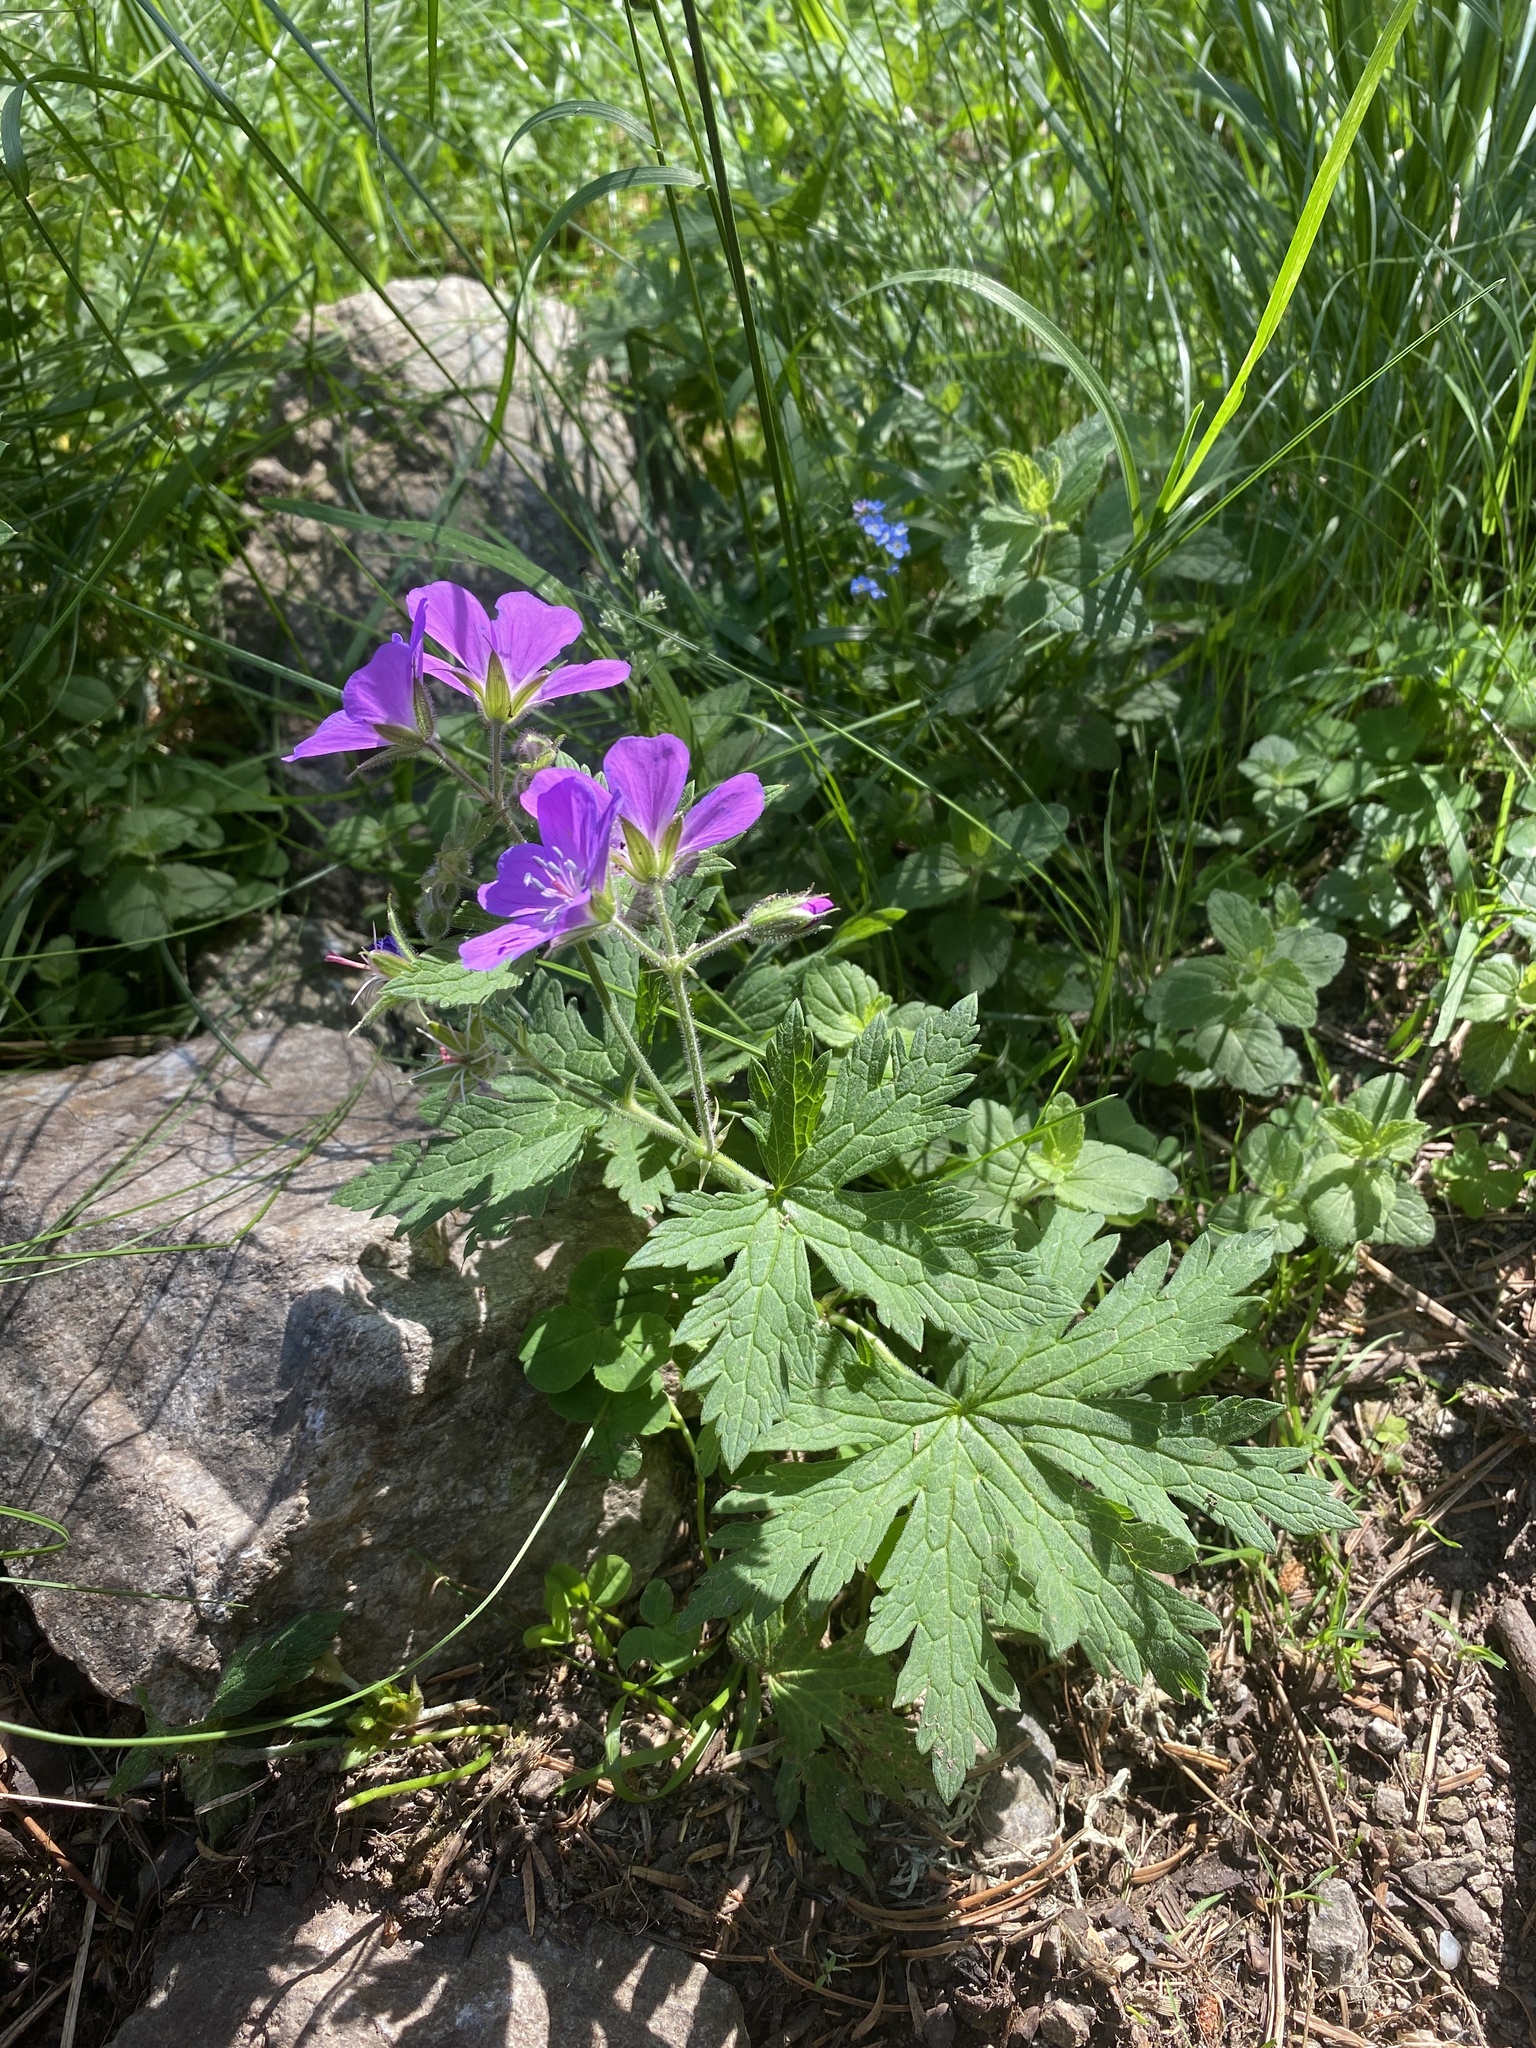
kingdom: Plantae
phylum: Tracheophyta
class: Magnoliopsida
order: Geraniales
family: Geraniaceae
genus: Geranium
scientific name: Geranium sylvaticum
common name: Wood crane's-bill
